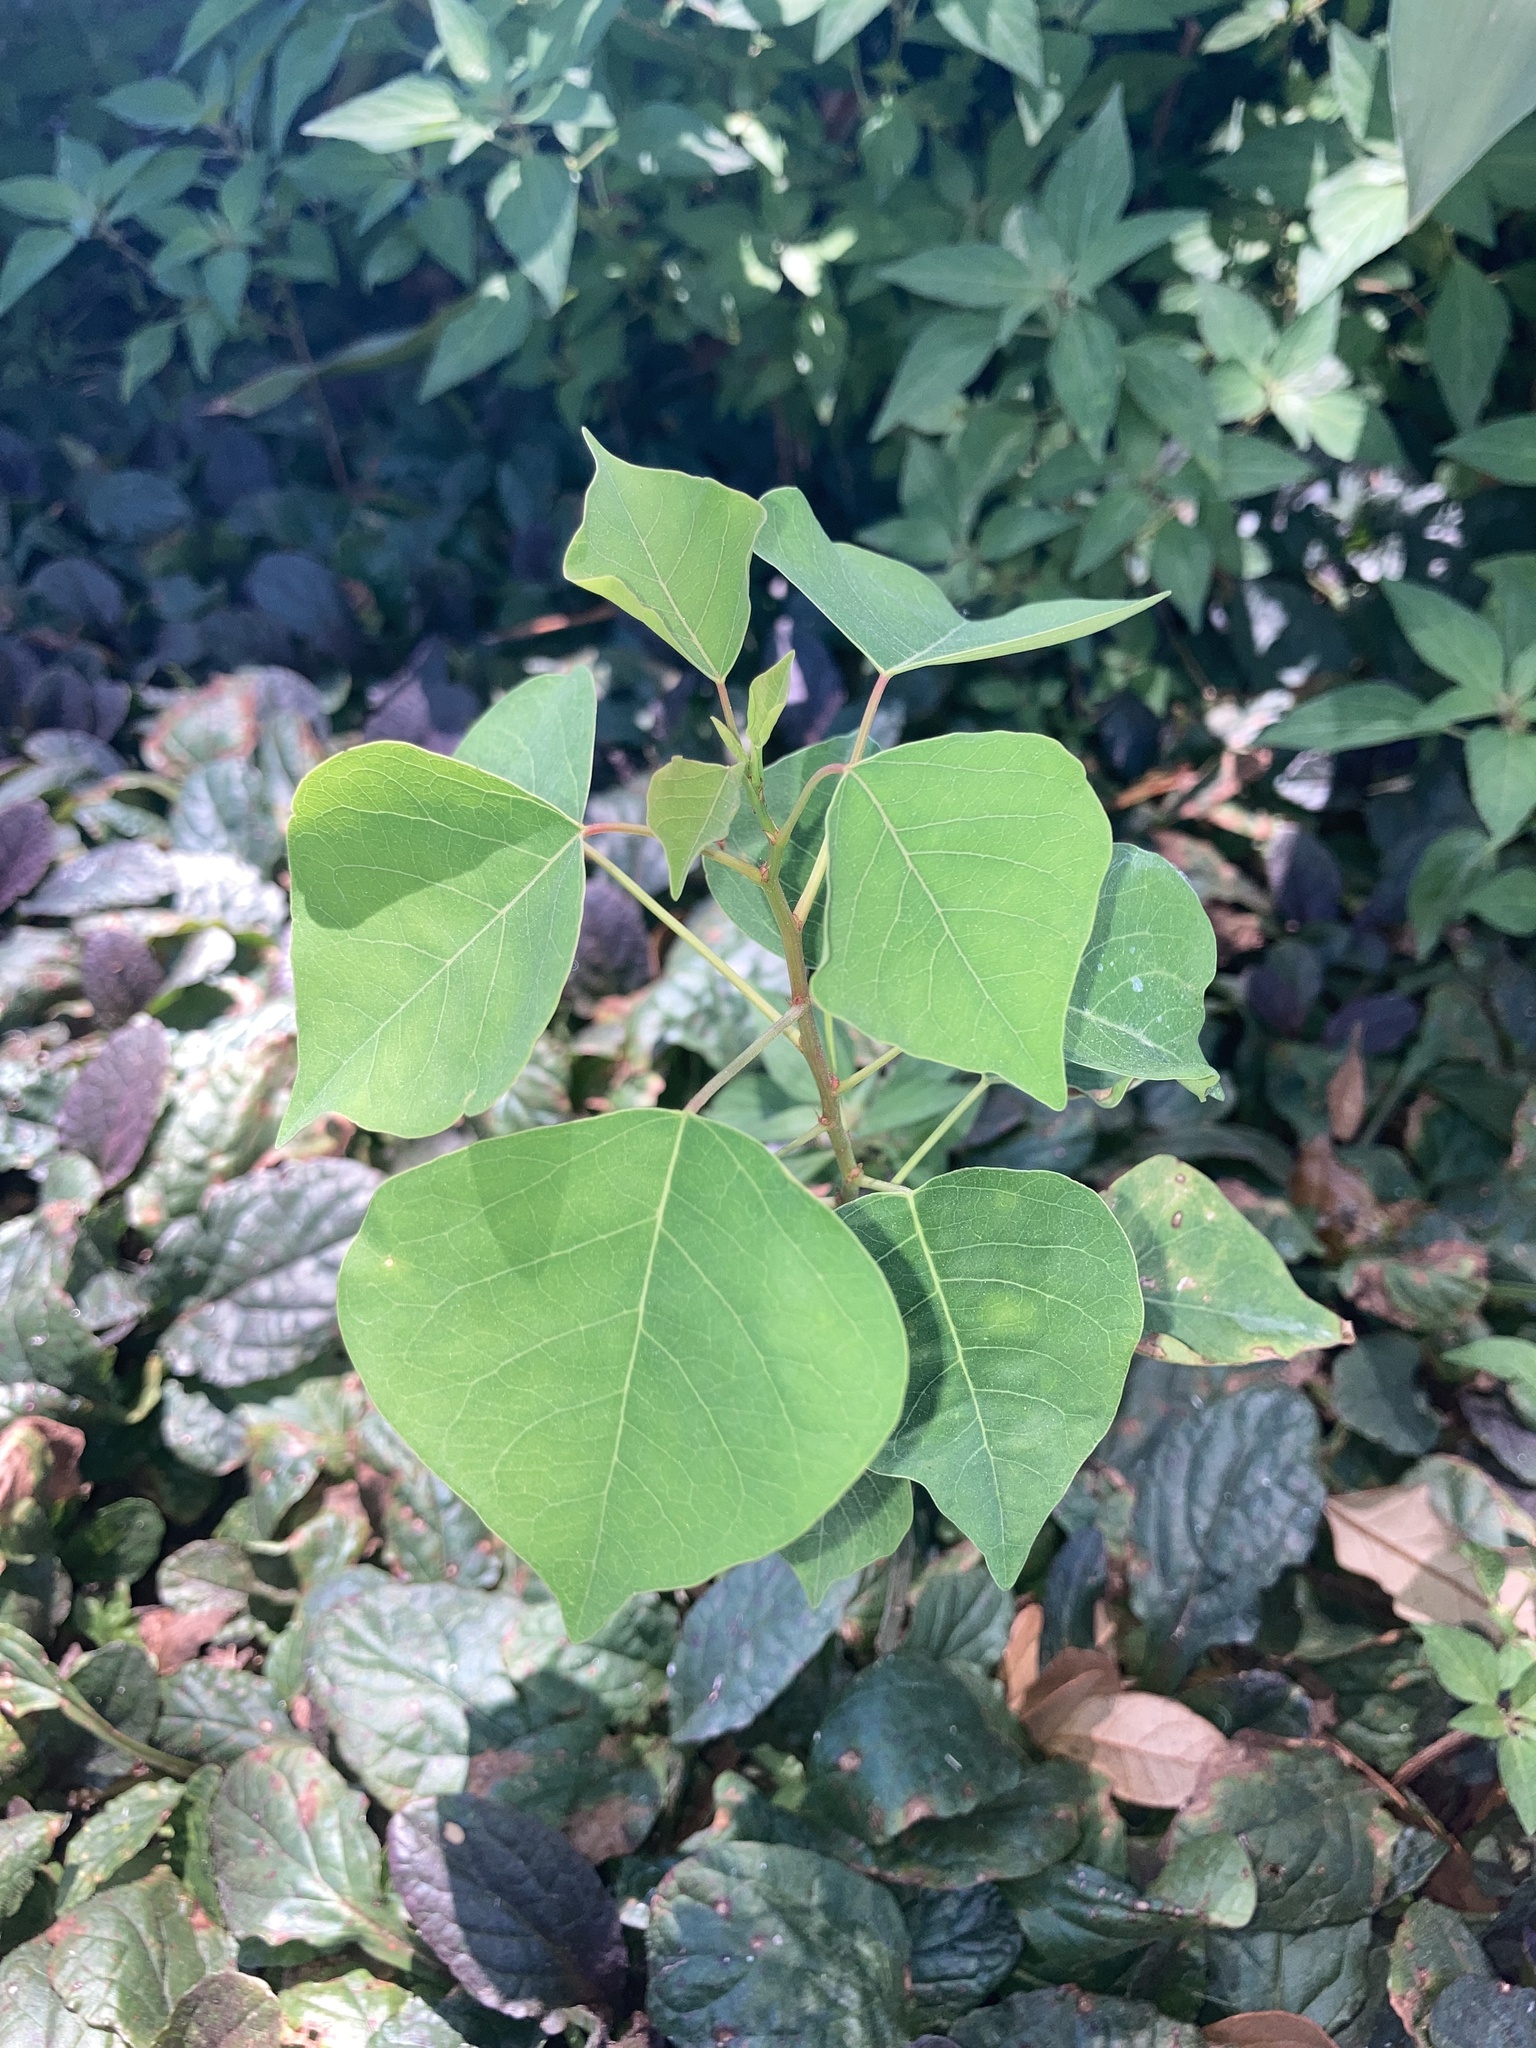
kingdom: Plantae
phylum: Tracheophyta
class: Magnoliopsida
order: Malpighiales
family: Euphorbiaceae
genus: Triadica
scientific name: Triadica sebifera
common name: Chinese tallow
